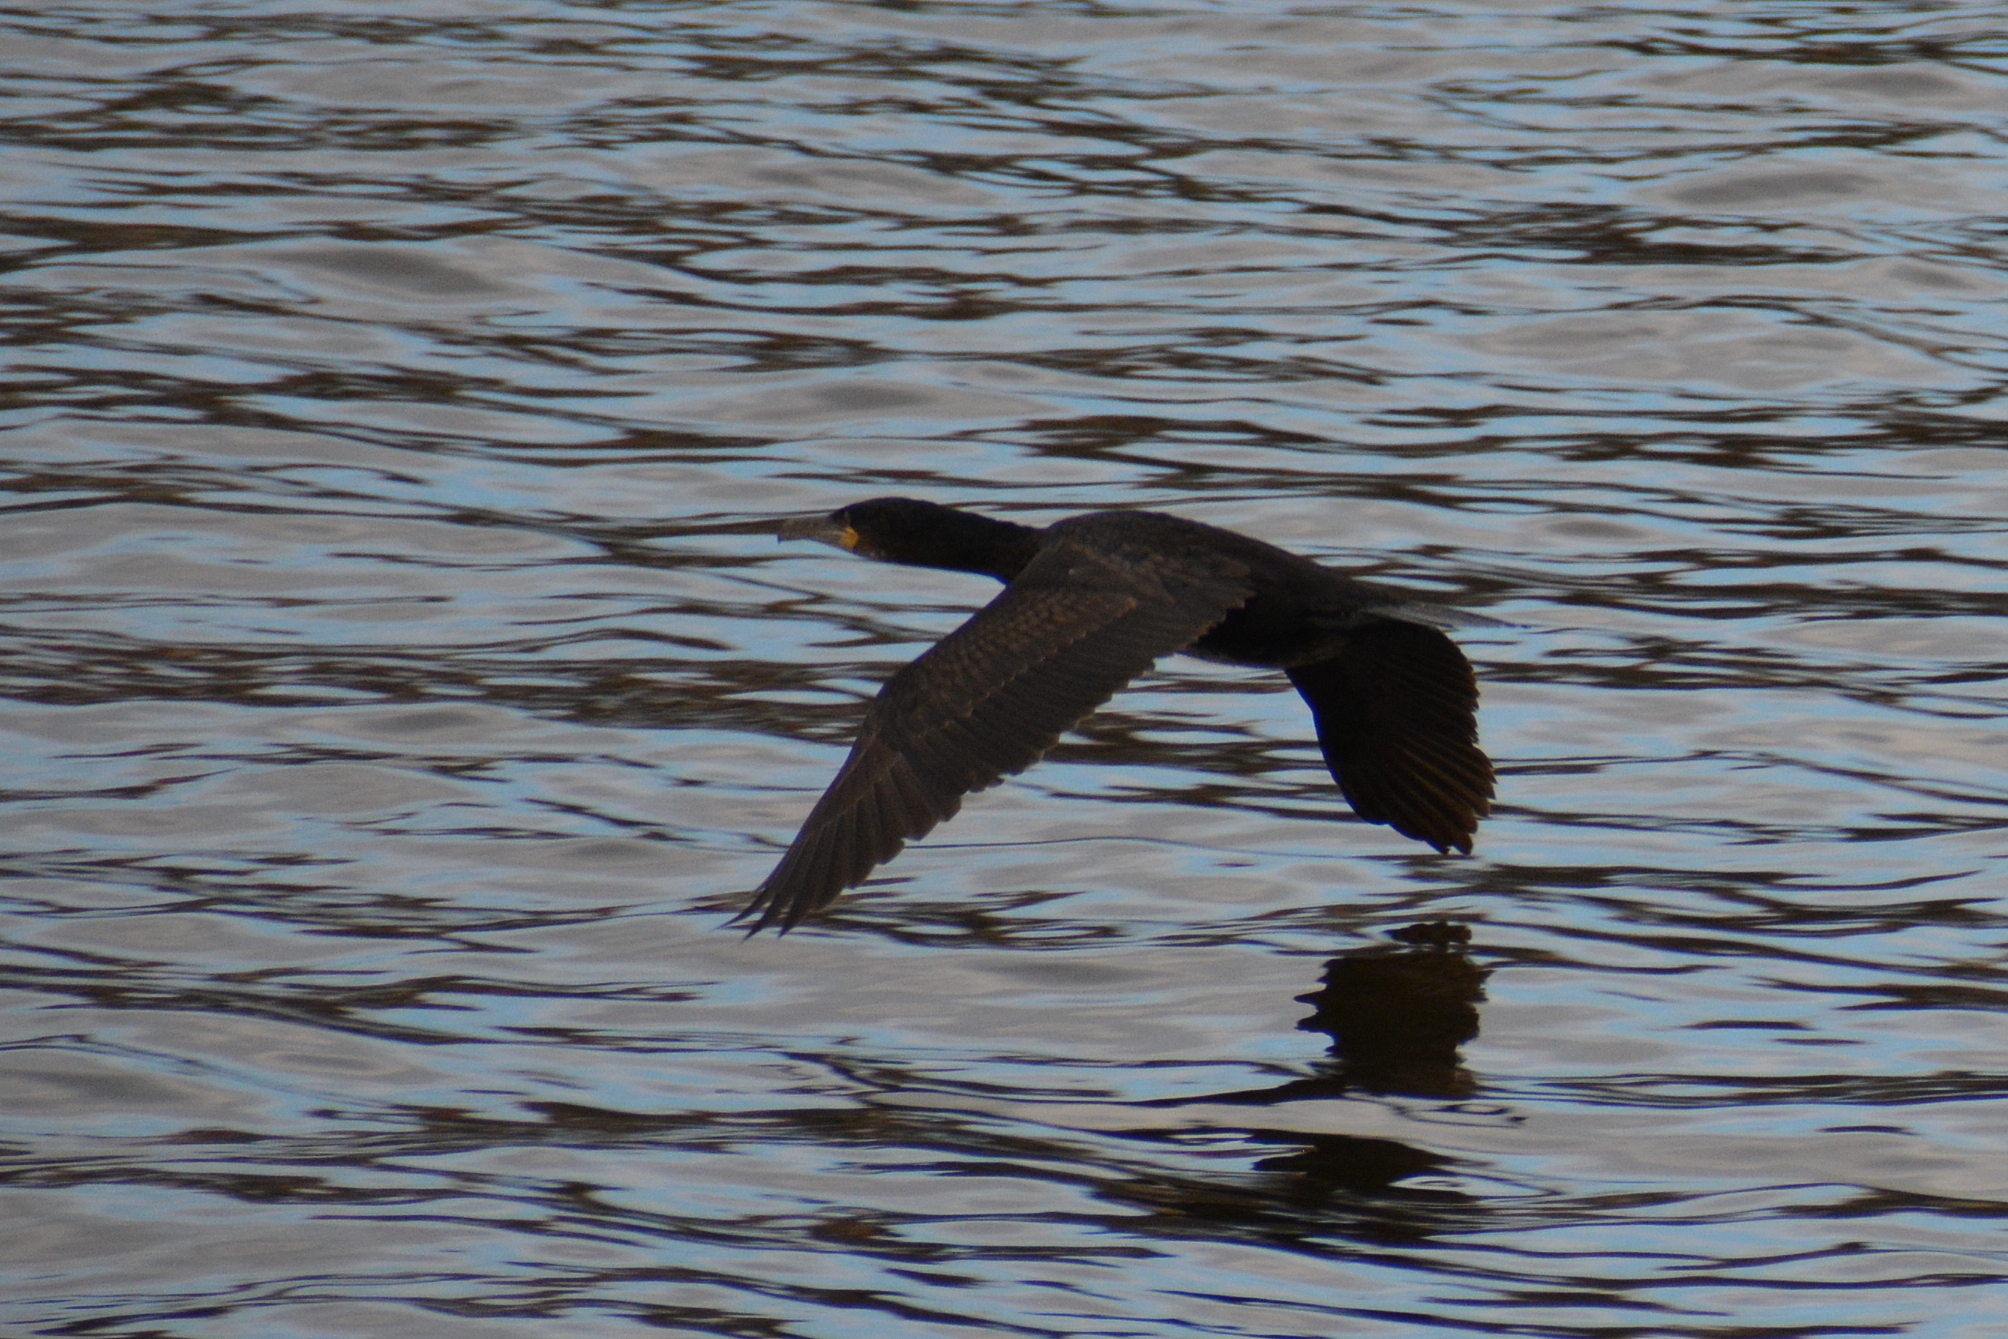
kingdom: Animalia
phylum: Chordata
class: Aves
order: Suliformes
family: Phalacrocoracidae
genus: Phalacrocorax
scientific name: Phalacrocorax carbo
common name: Great cormorant
